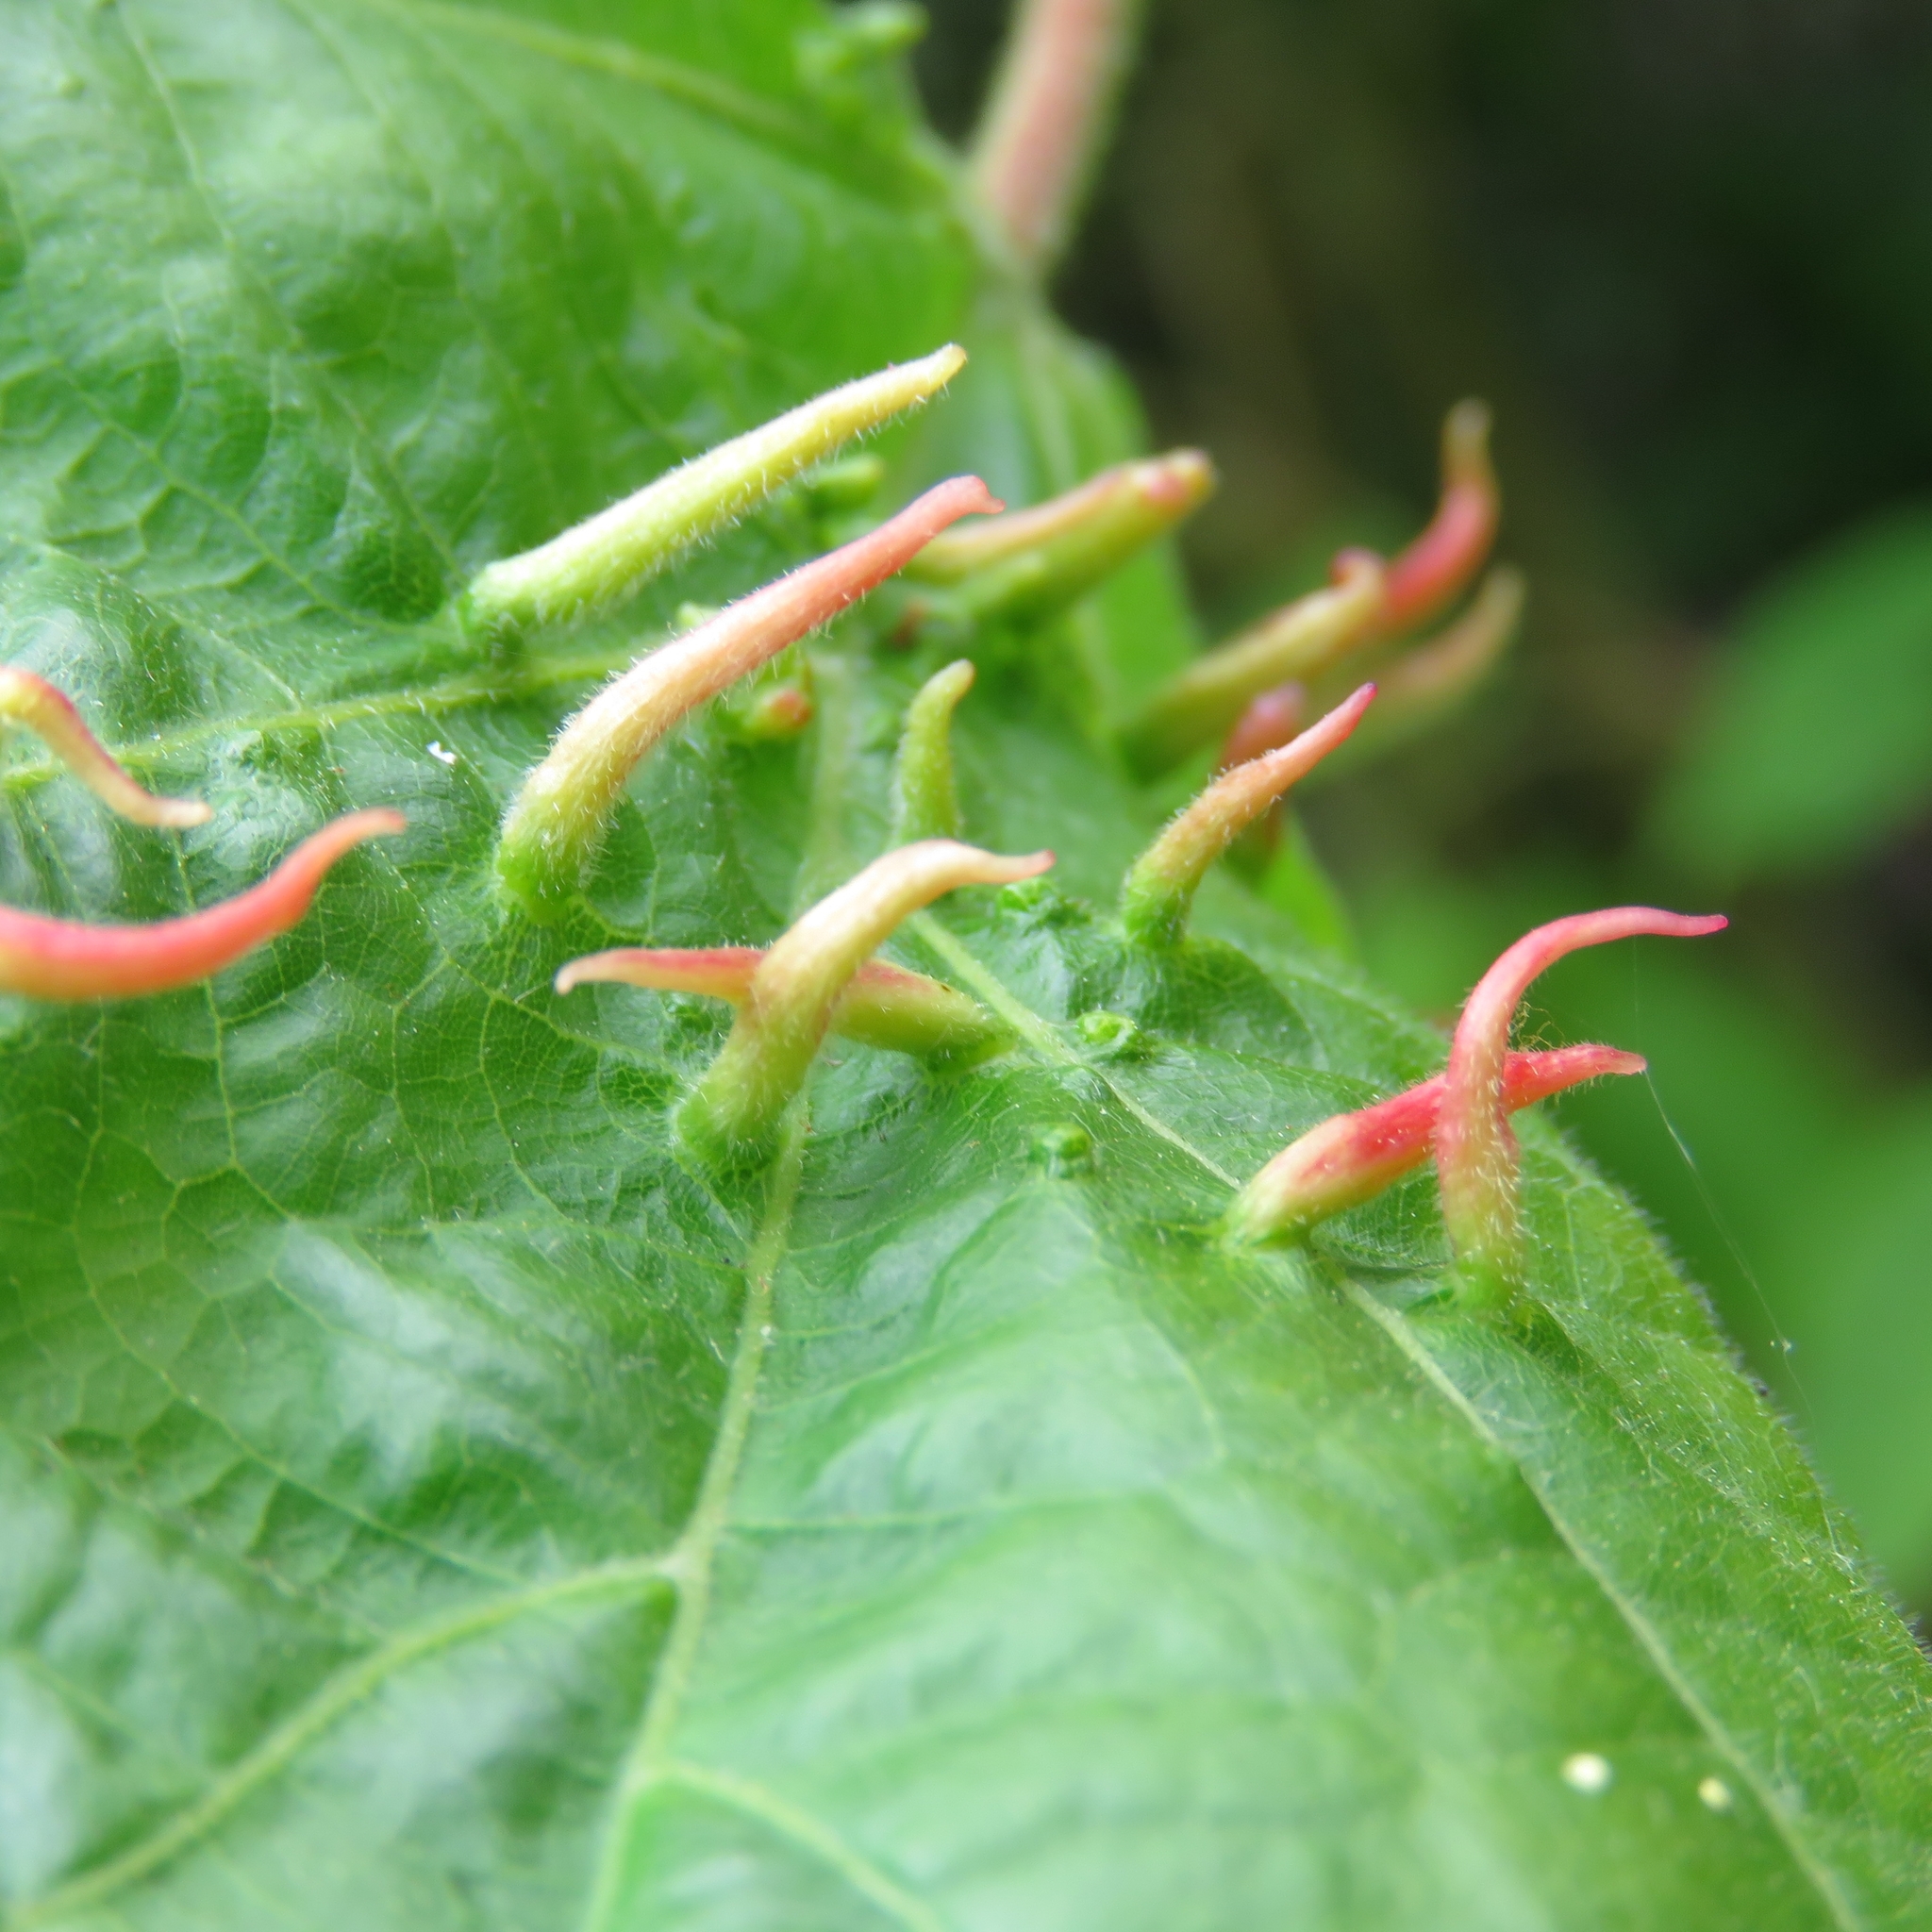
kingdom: Animalia
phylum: Arthropoda
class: Arachnida
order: Trombidiformes
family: Eriophyidae
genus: Eriophyes
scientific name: Eriophyes tiliae
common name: Red nail gall mite
